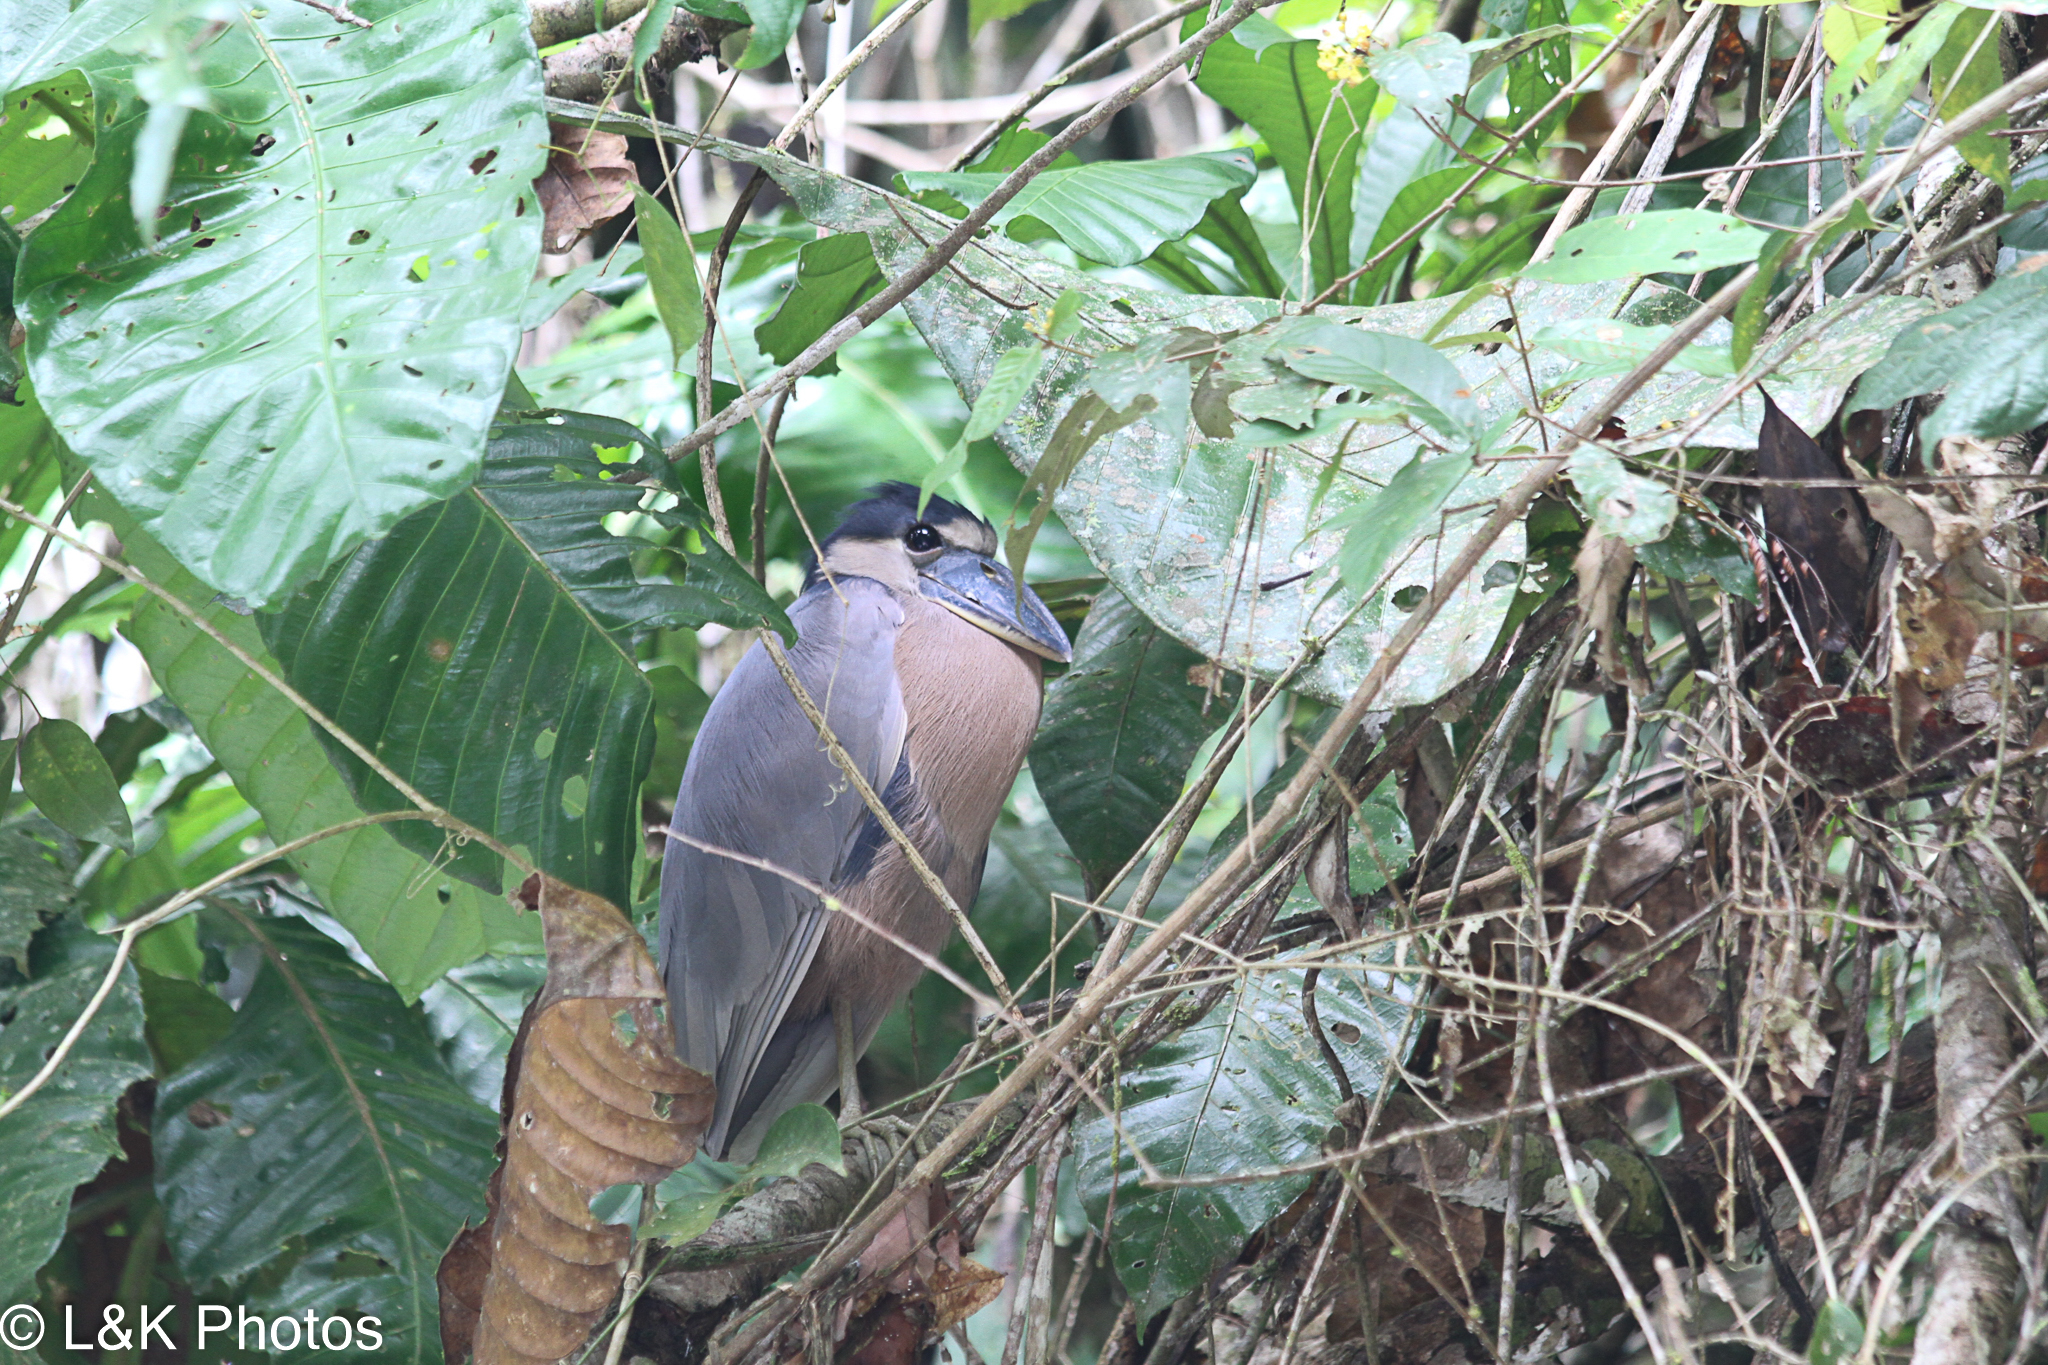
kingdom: Animalia
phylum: Chordata
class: Aves
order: Pelecaniformes
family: Ardeidae
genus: Cochlearius
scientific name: Cochlearius cochlearius
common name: Boat-billed heron
